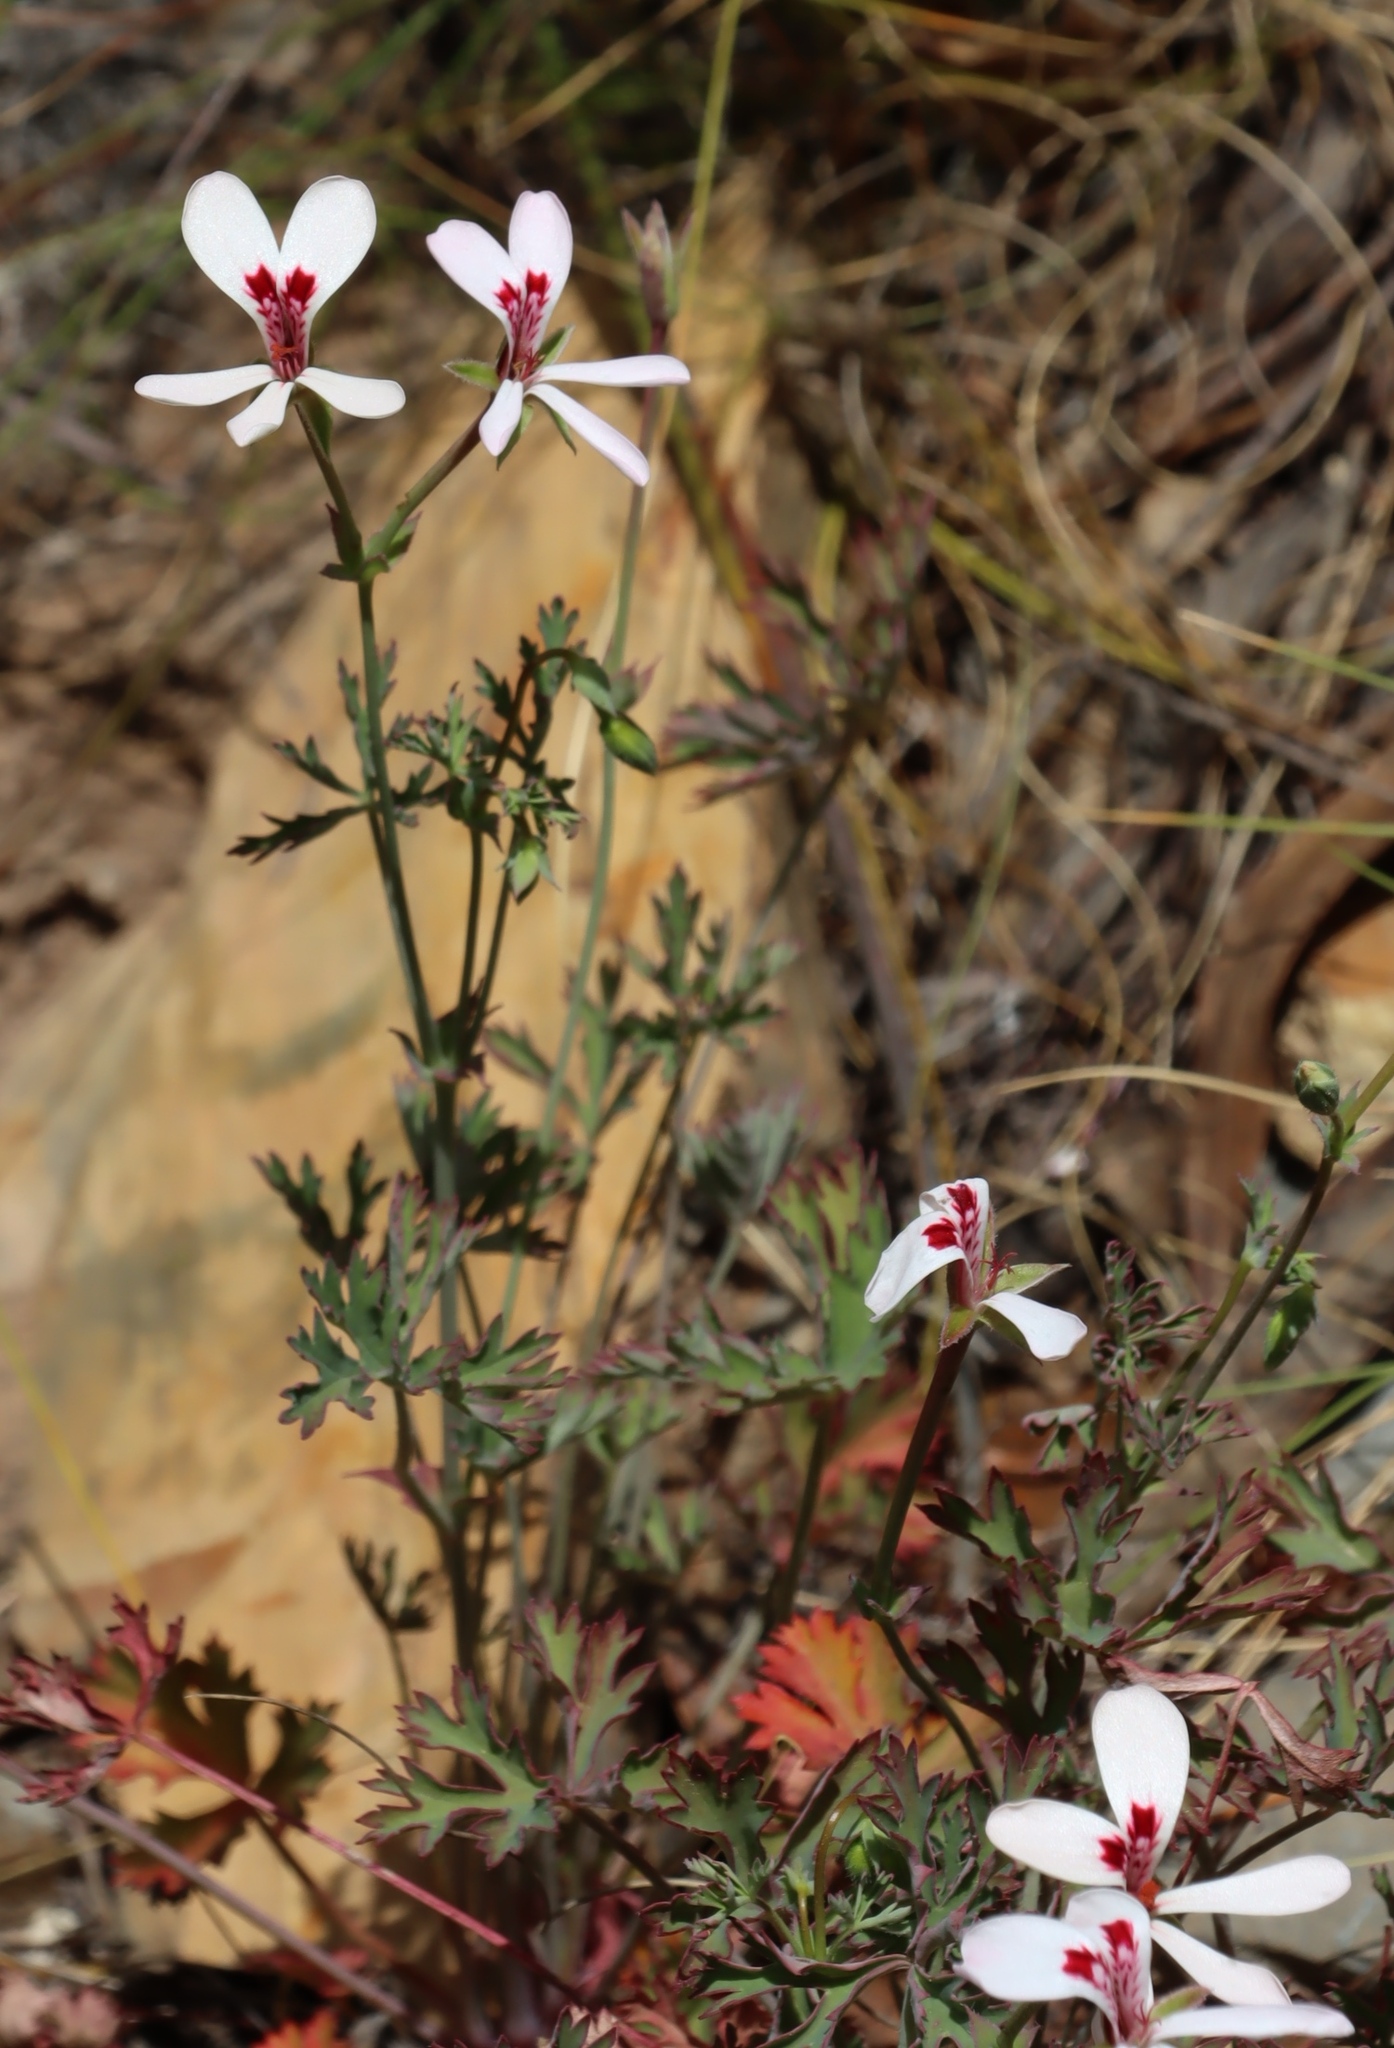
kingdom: Plantae
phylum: Tracheophyta
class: Magnoliopsida
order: Geraniales
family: Geraniaceae
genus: Pelargonium
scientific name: Pelargonium patulum
